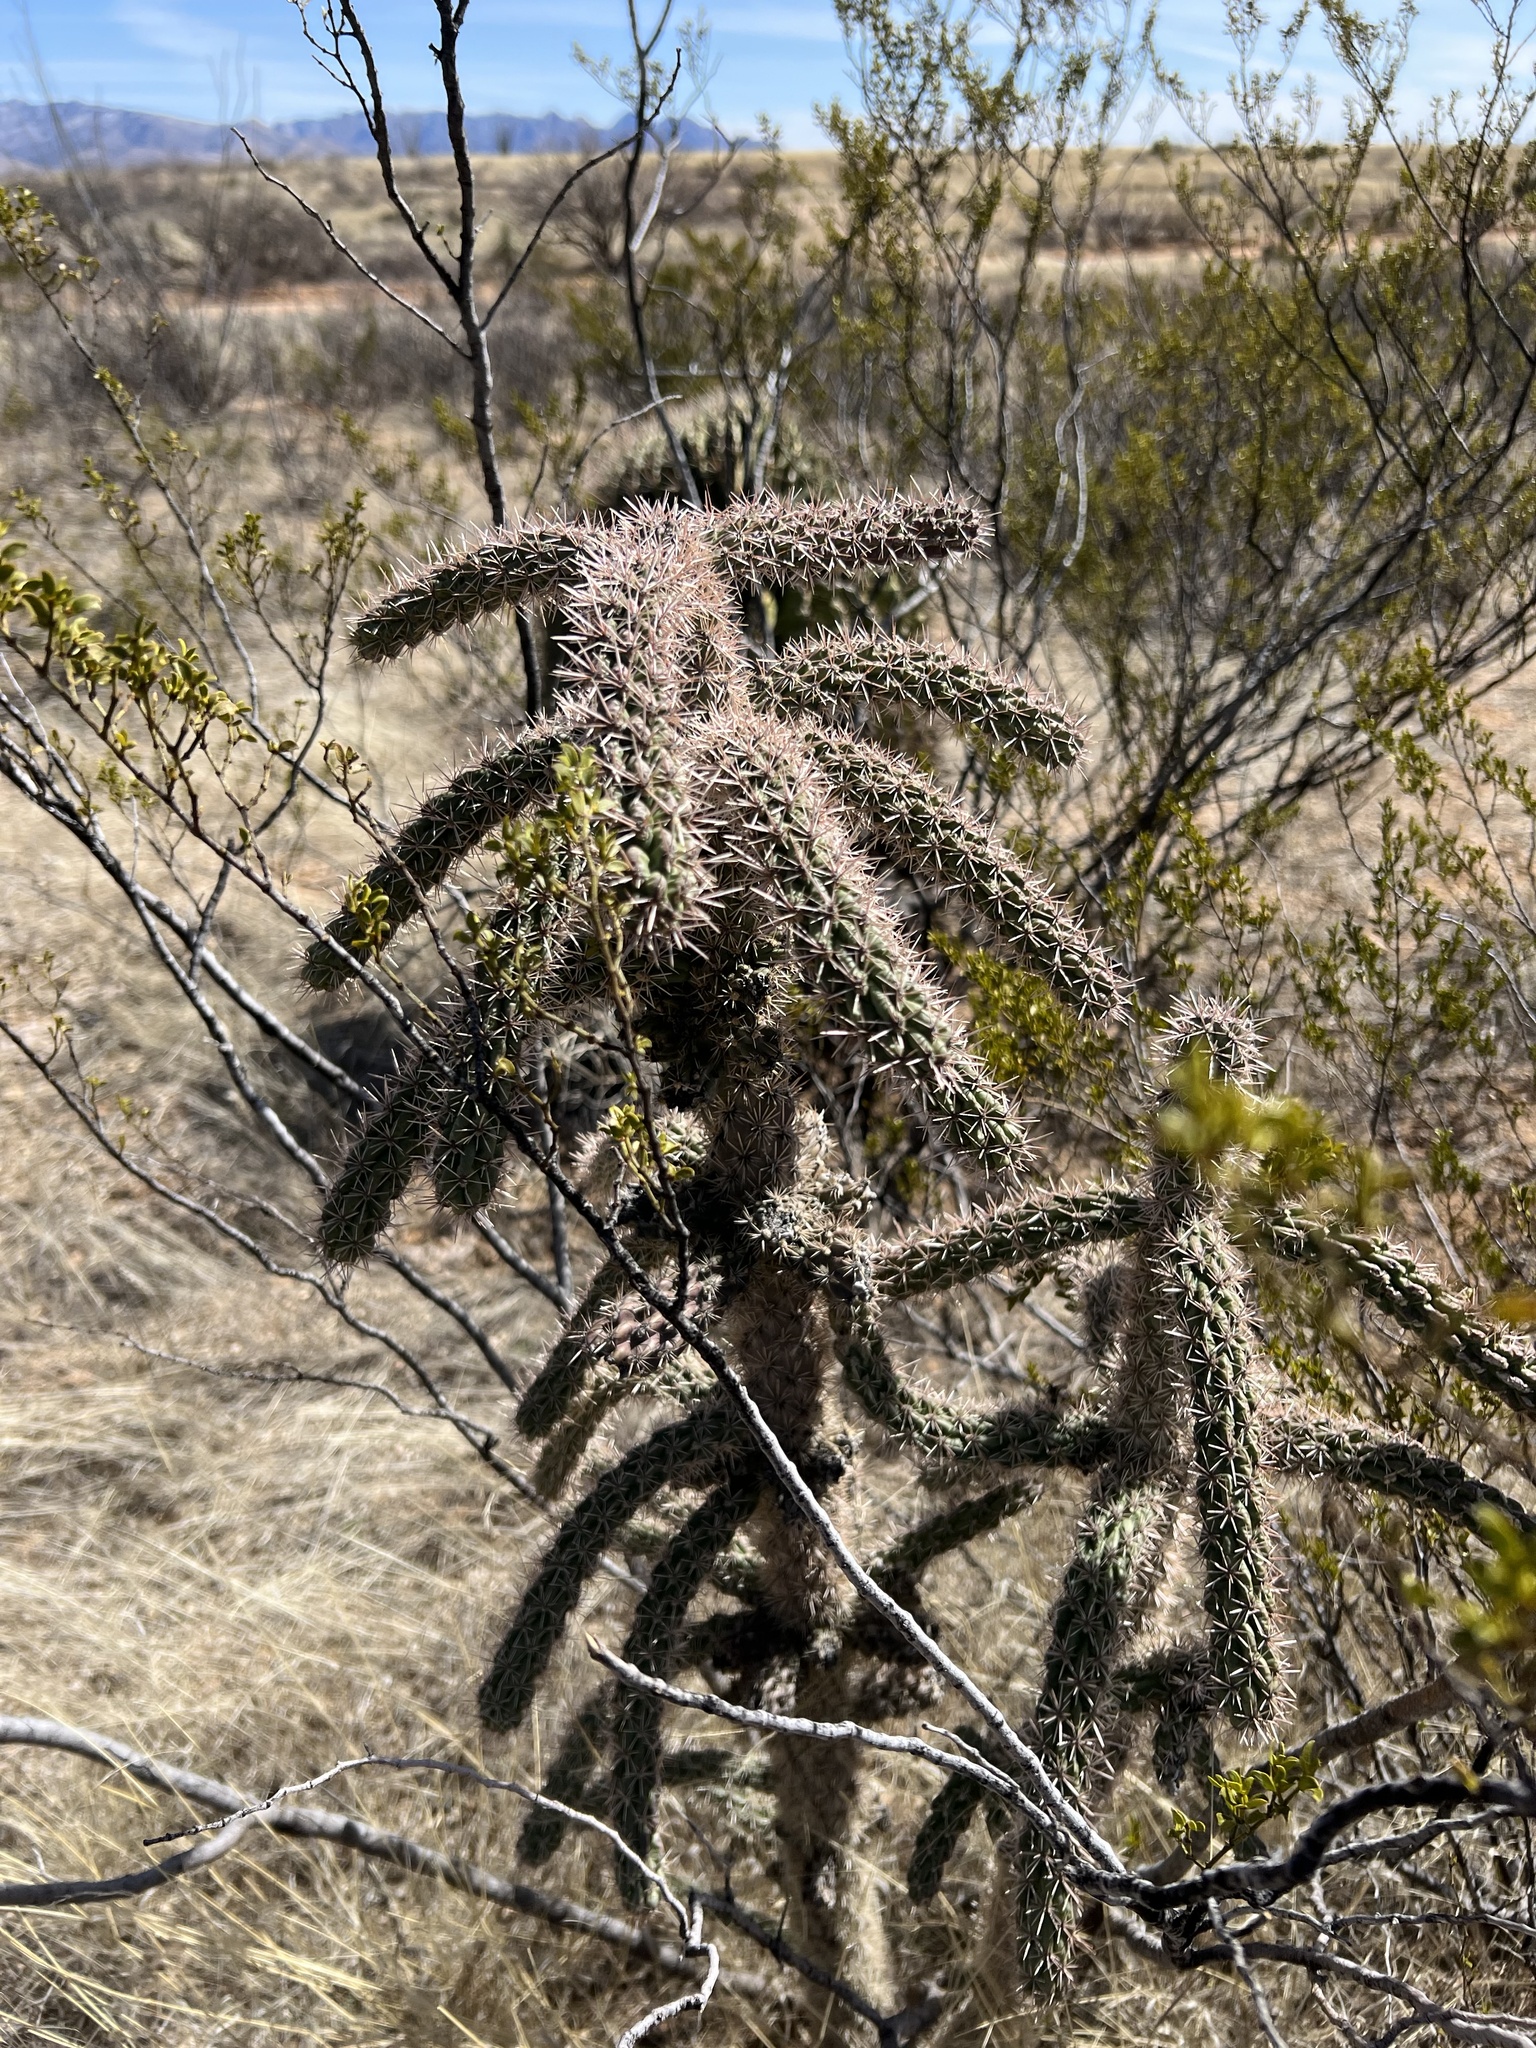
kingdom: Plantae
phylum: Tracheophyta
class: Magnoliopsida
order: Caryophyllales
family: Cactaceae
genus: Cylindropuntia
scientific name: Cylindropuntia imbricata
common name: Candelabrum cactus
